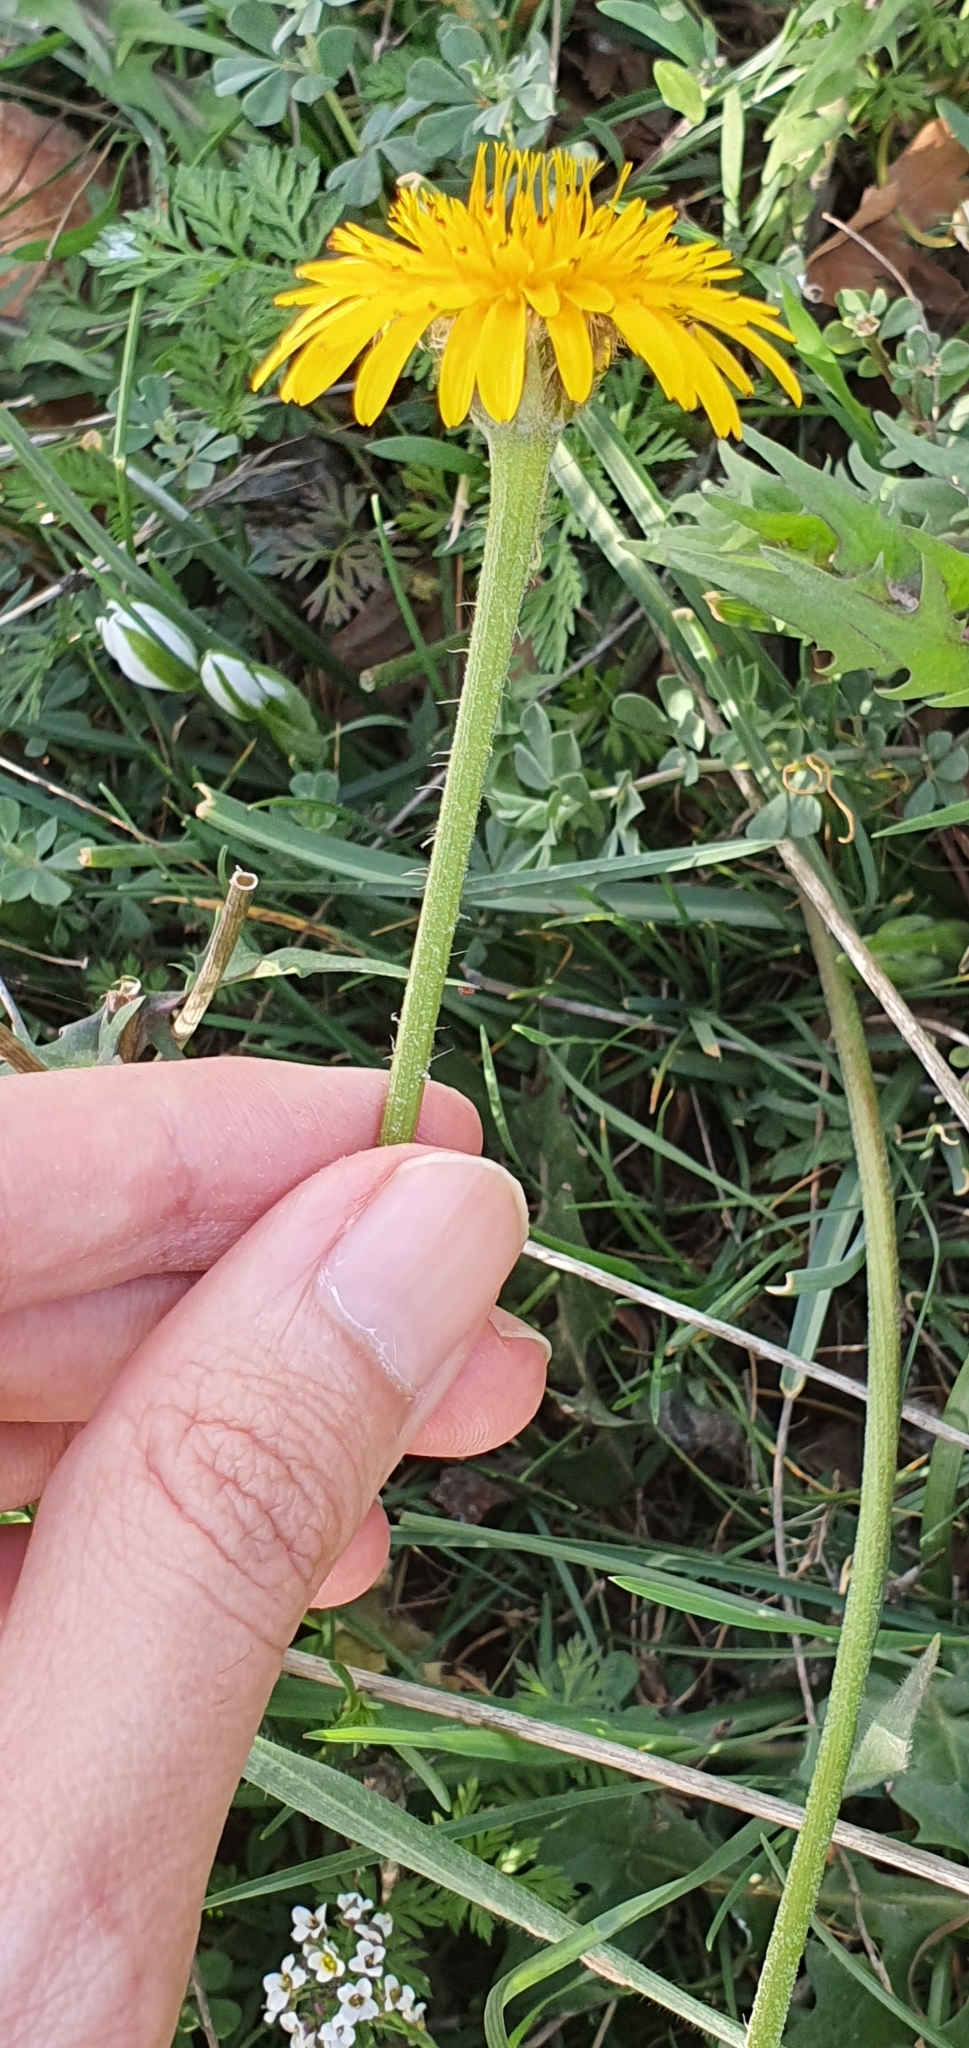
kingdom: Plantae
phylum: Tracheophyta
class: Magnoliopsida
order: Asterales
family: Asteraceae
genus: Leontodon
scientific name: Leontodon tuberosus
